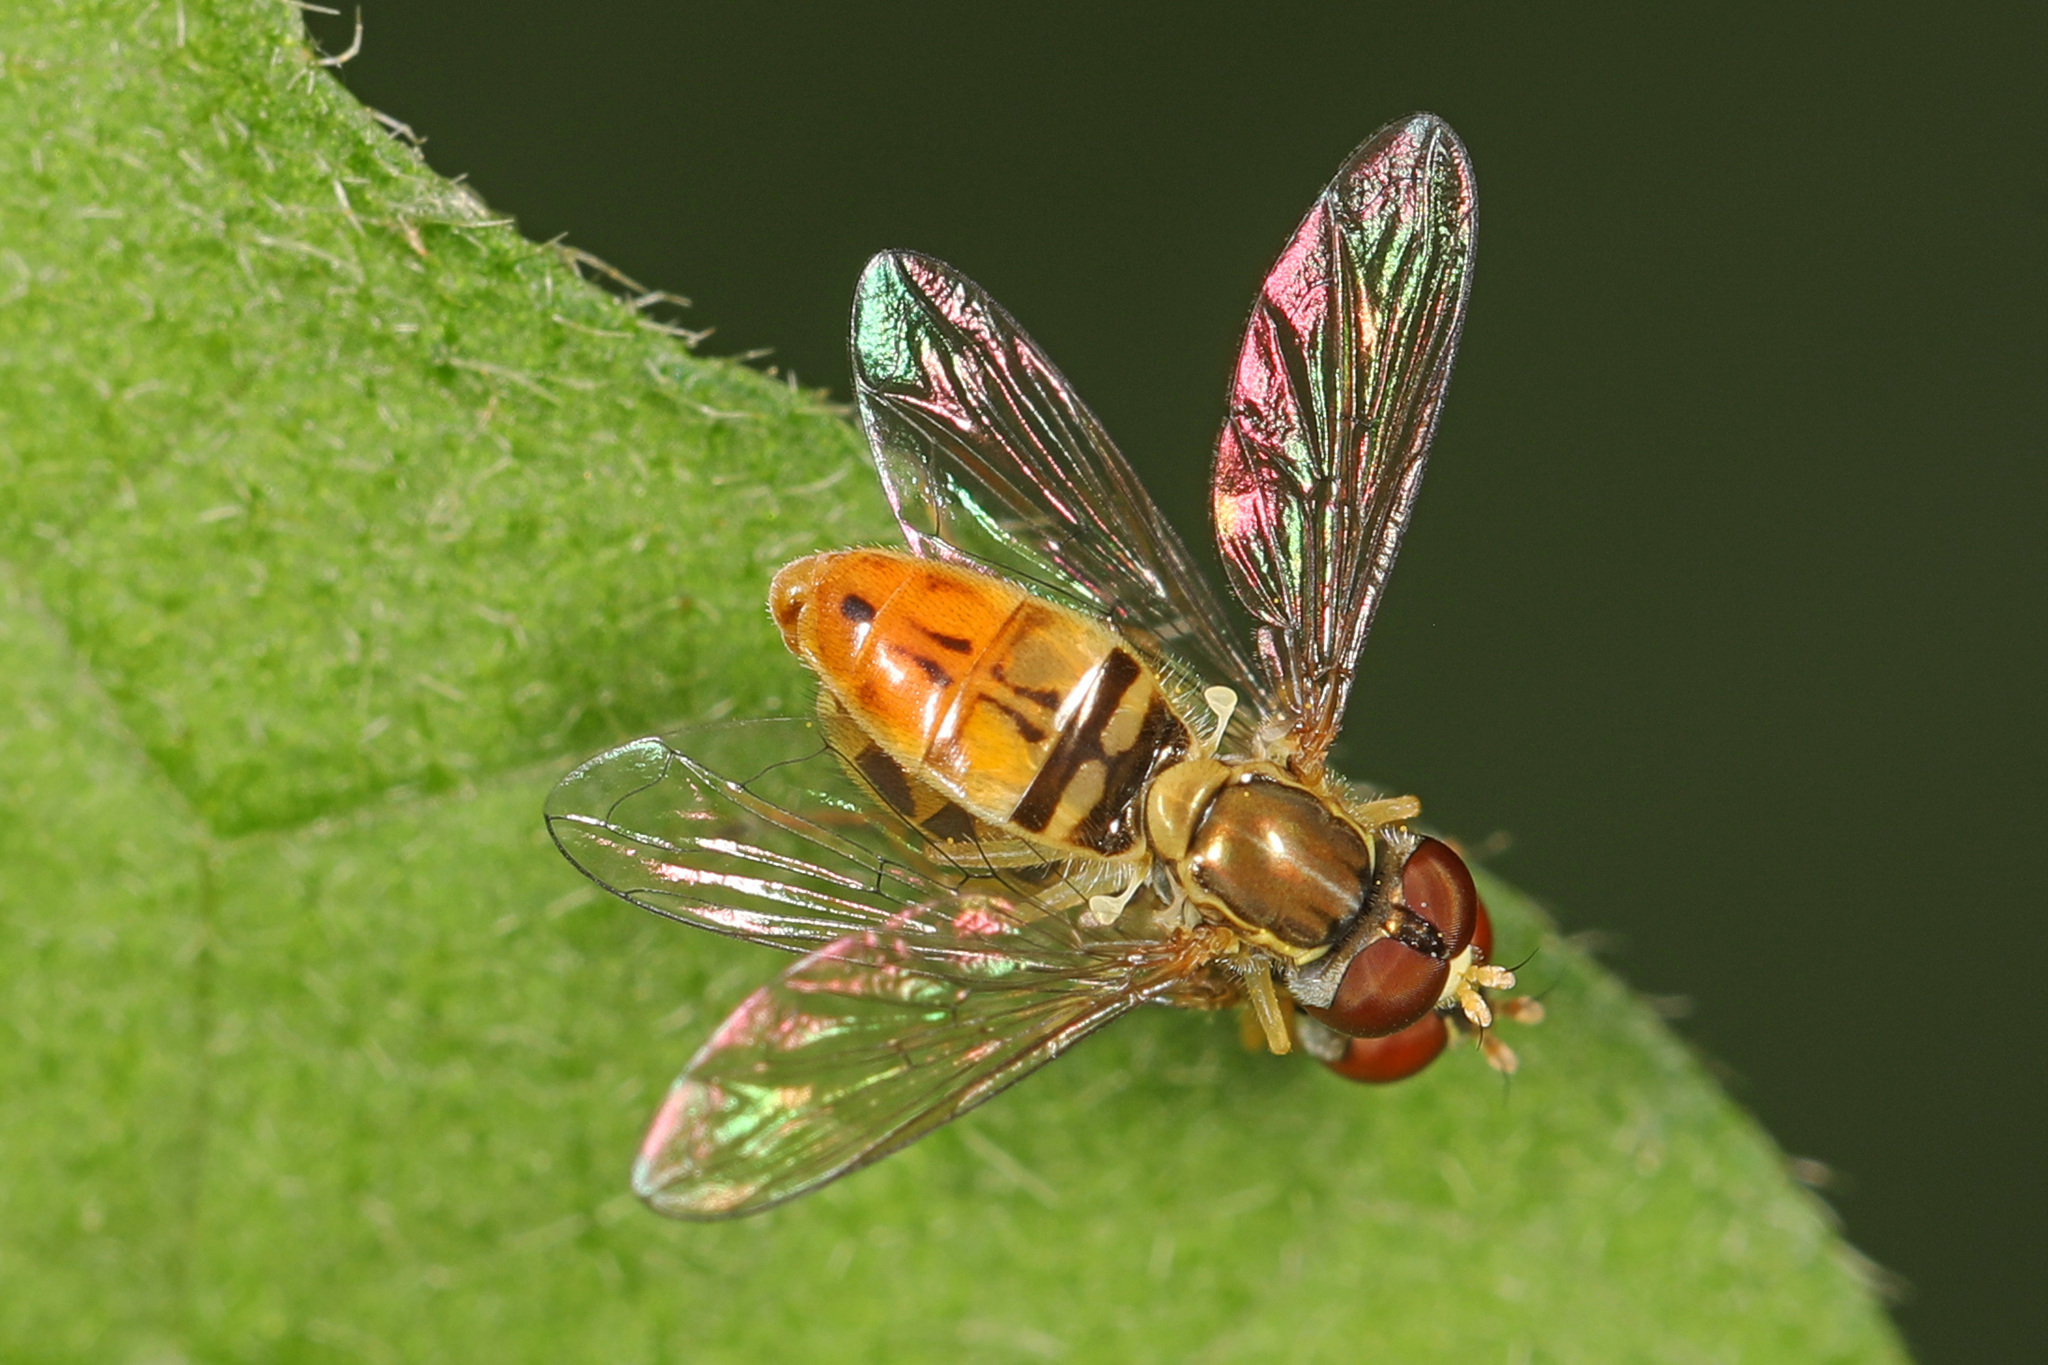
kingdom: Animalia
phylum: Arthropoda
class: Insecta
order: Diptera
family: Syrphidae
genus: Toxomerus
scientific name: Toxomerus marginatus
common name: Syrphid fly
